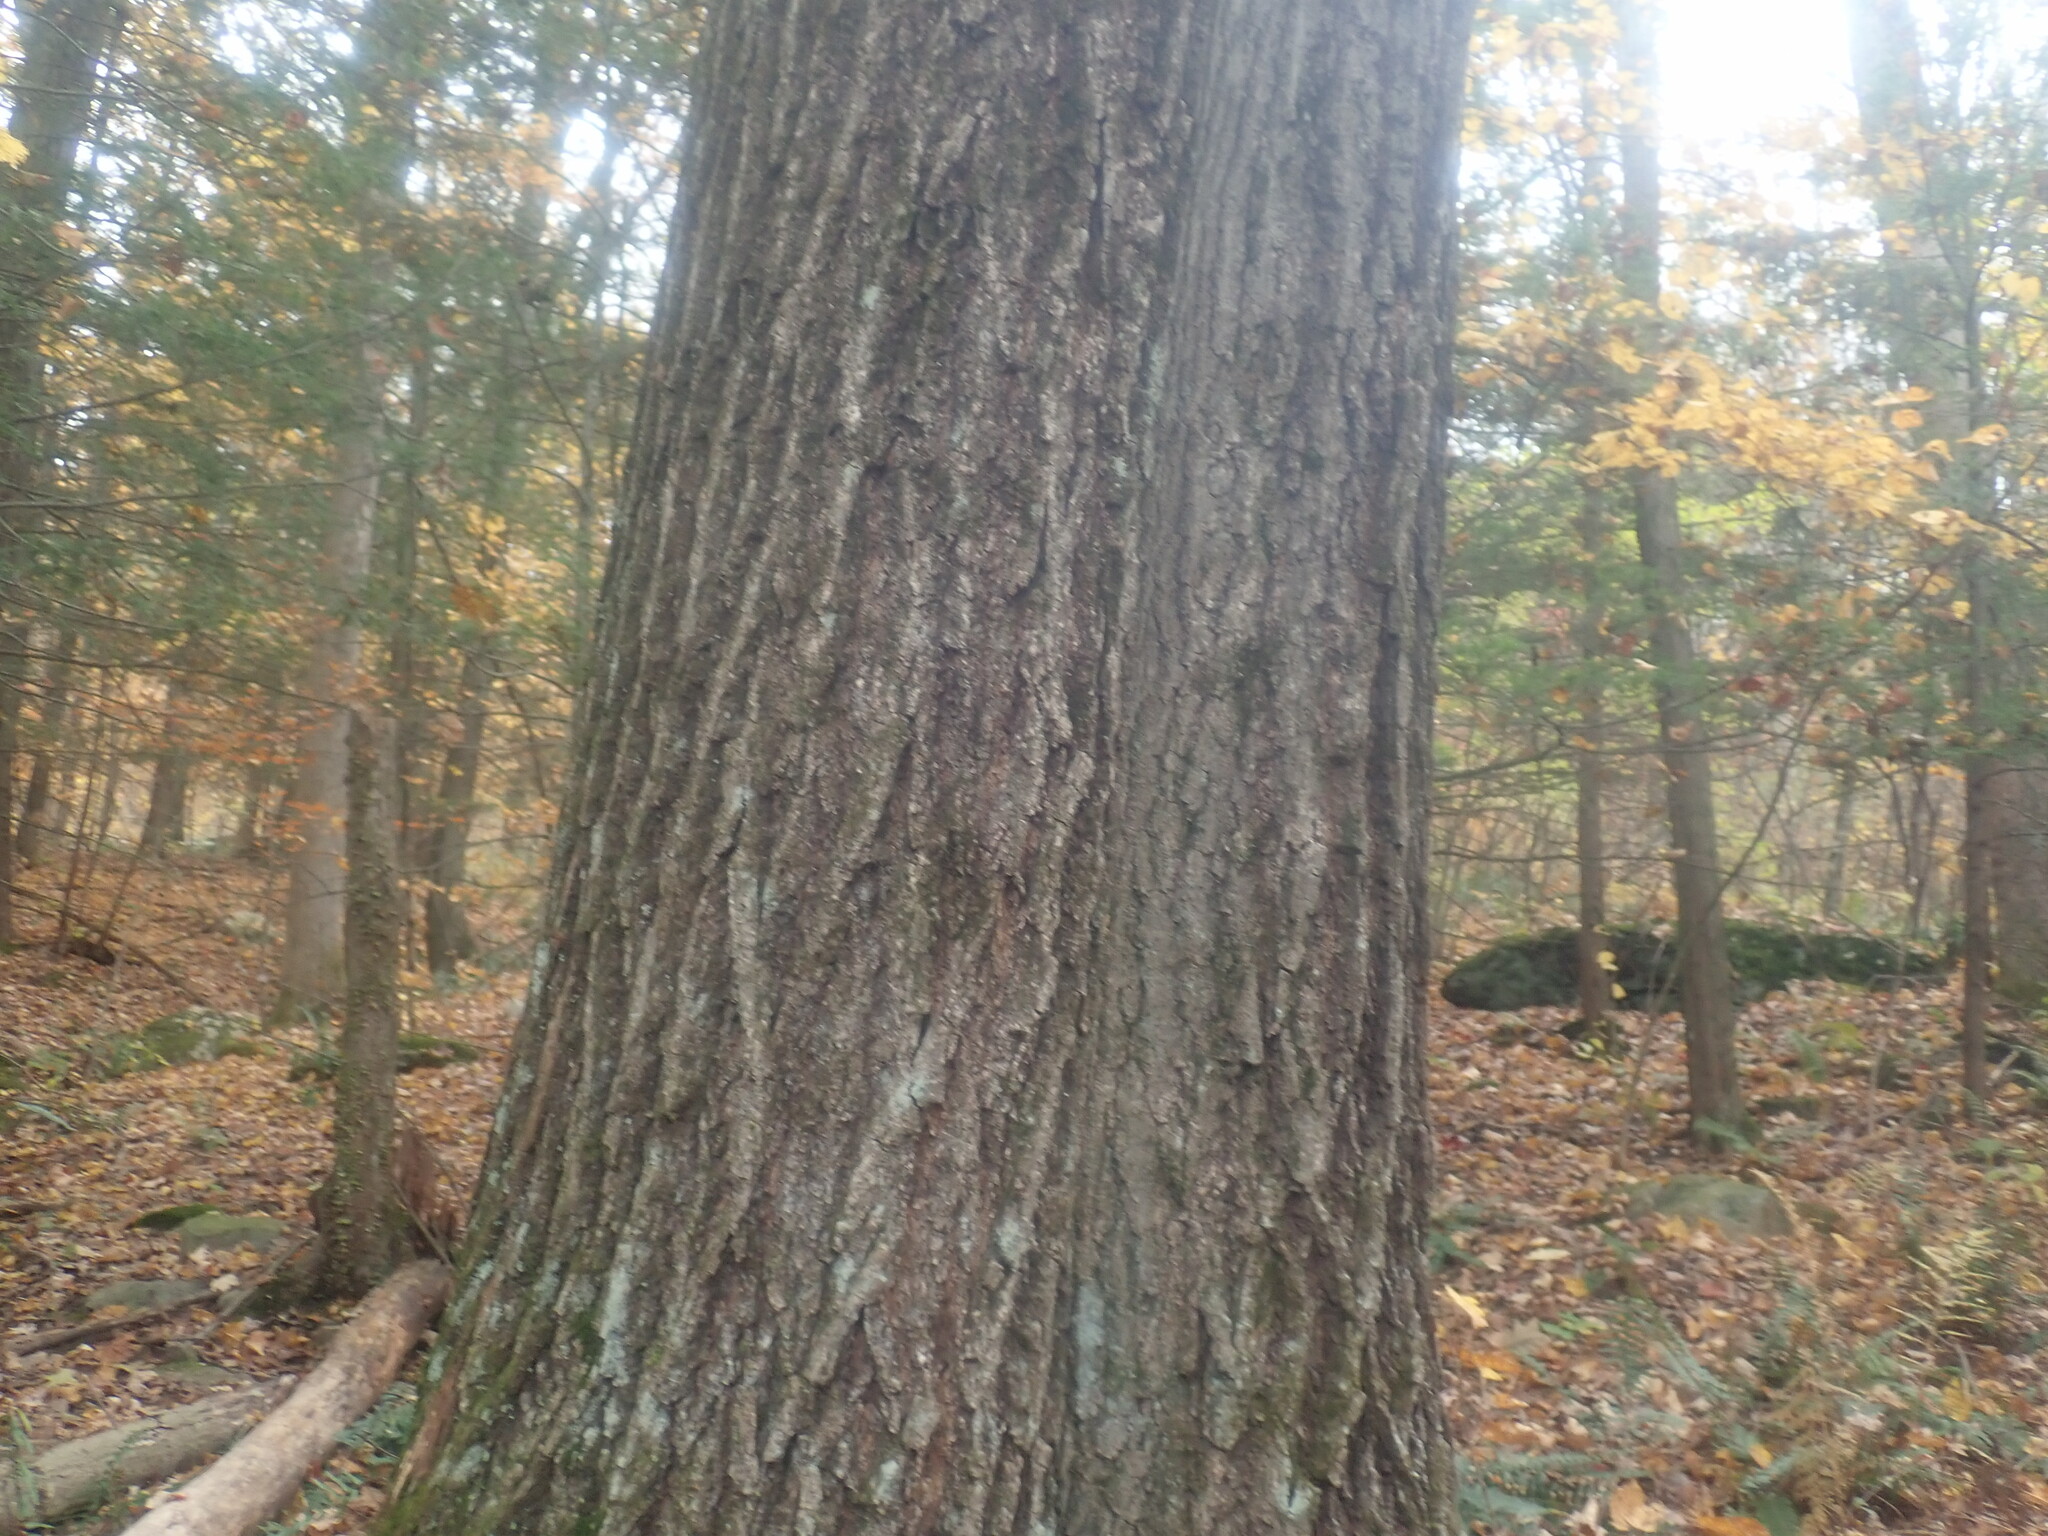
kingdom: Plantae
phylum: Tracheophyta
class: Magnoliopsida
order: Fagales
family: Fagaceae
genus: Quercus
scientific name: Quercus rubra
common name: Red oak
